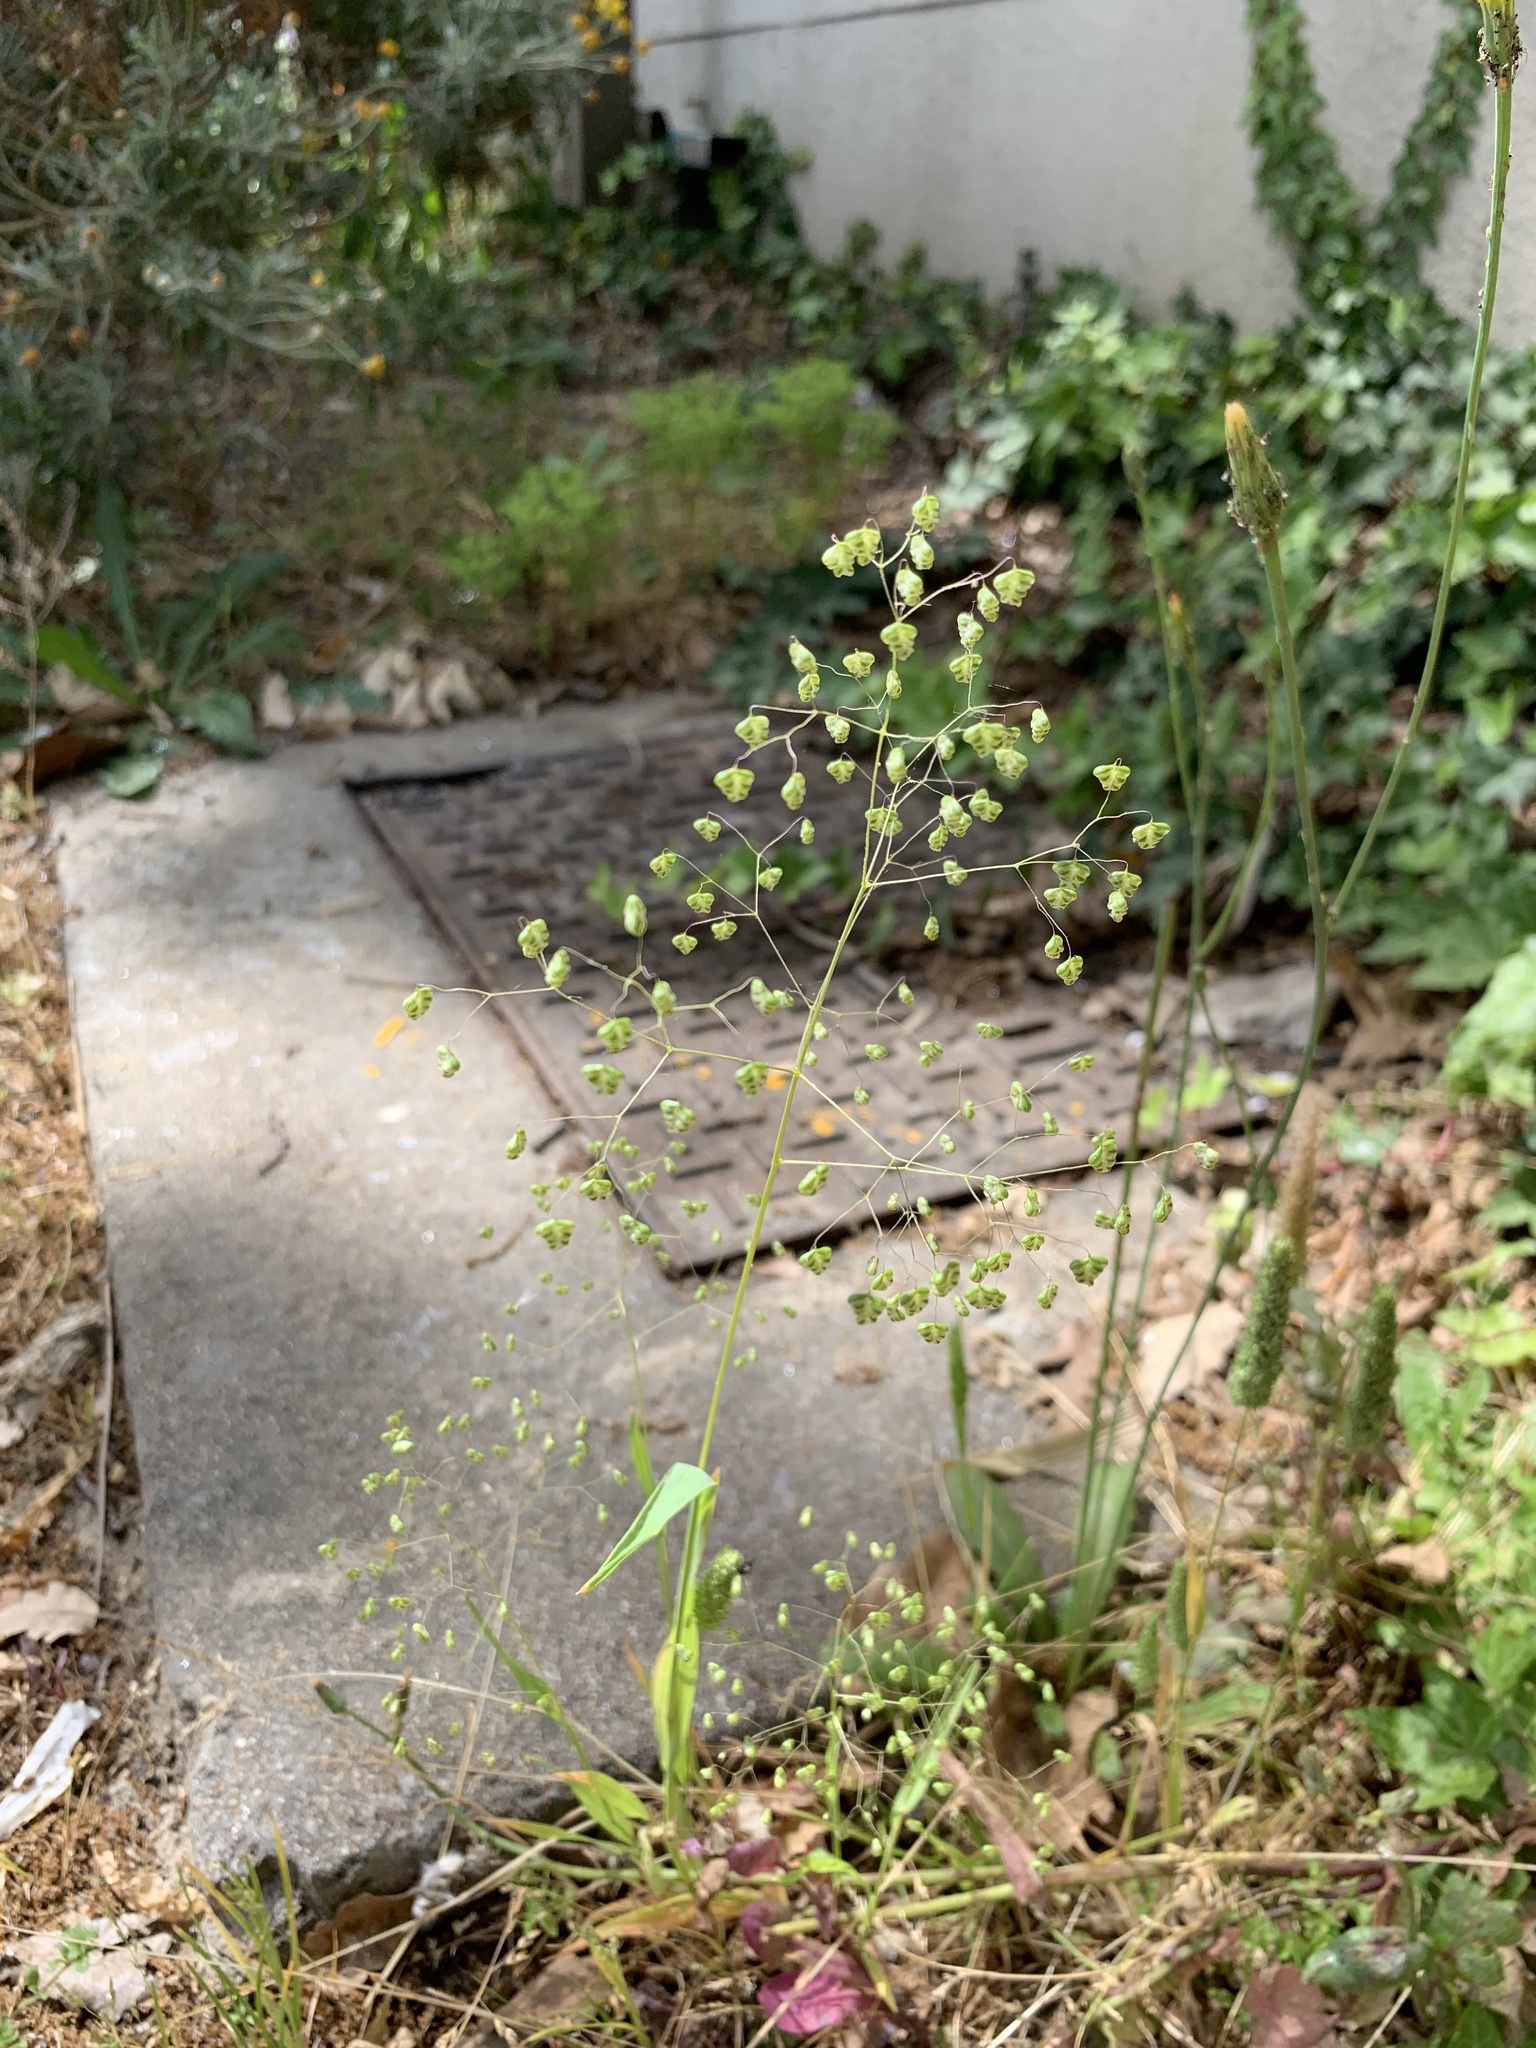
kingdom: Plantae
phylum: Tracheophyta
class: Liliopsida
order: Poales
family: Poaceae
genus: Briza
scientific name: Briza minor
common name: Lesser quaking-grass
